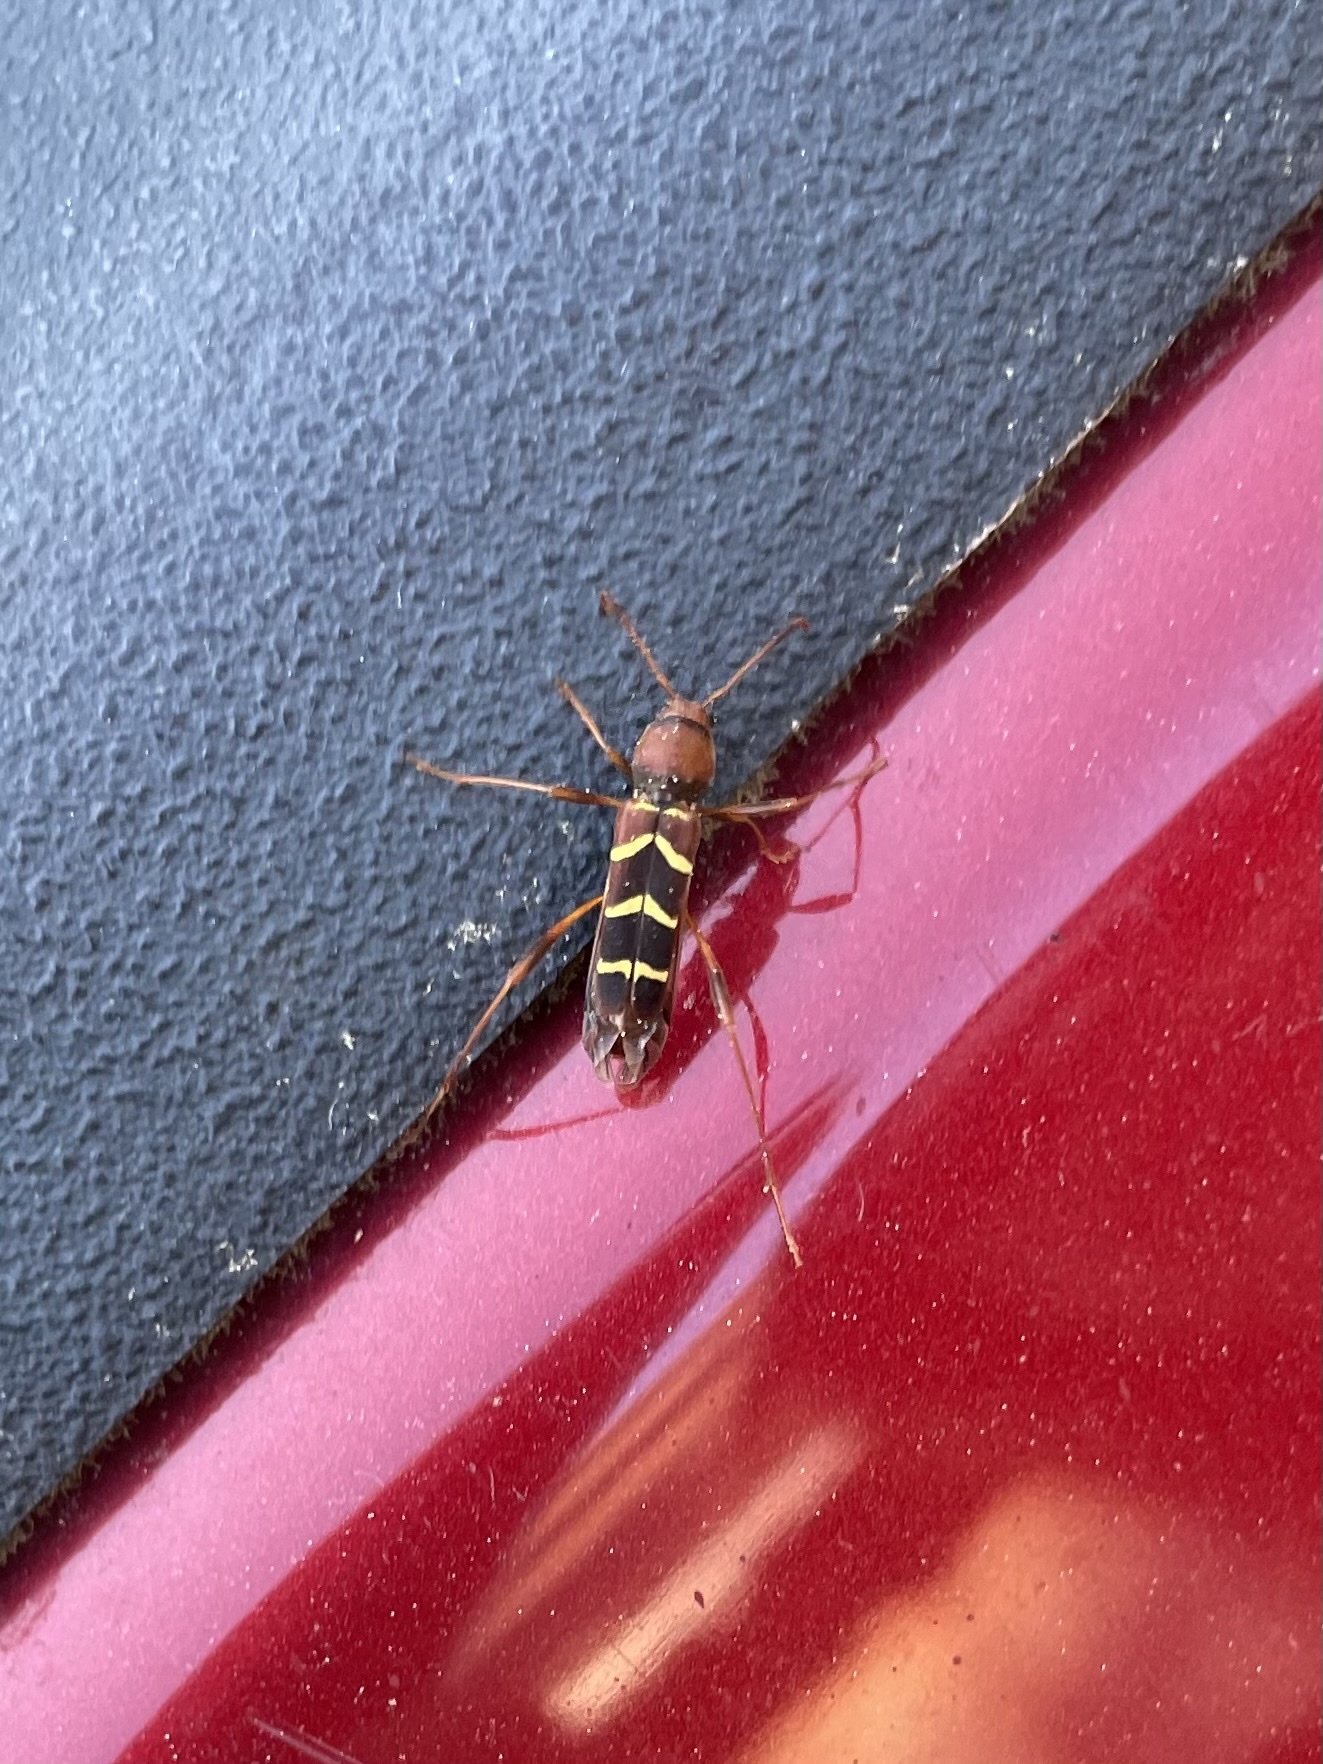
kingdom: Animalia
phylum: Arthropoda
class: Insecta
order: Coleoptera
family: Cerambycidae
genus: Neoclytus
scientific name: Neoclytus acuminatus
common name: Read-headed ash borer
